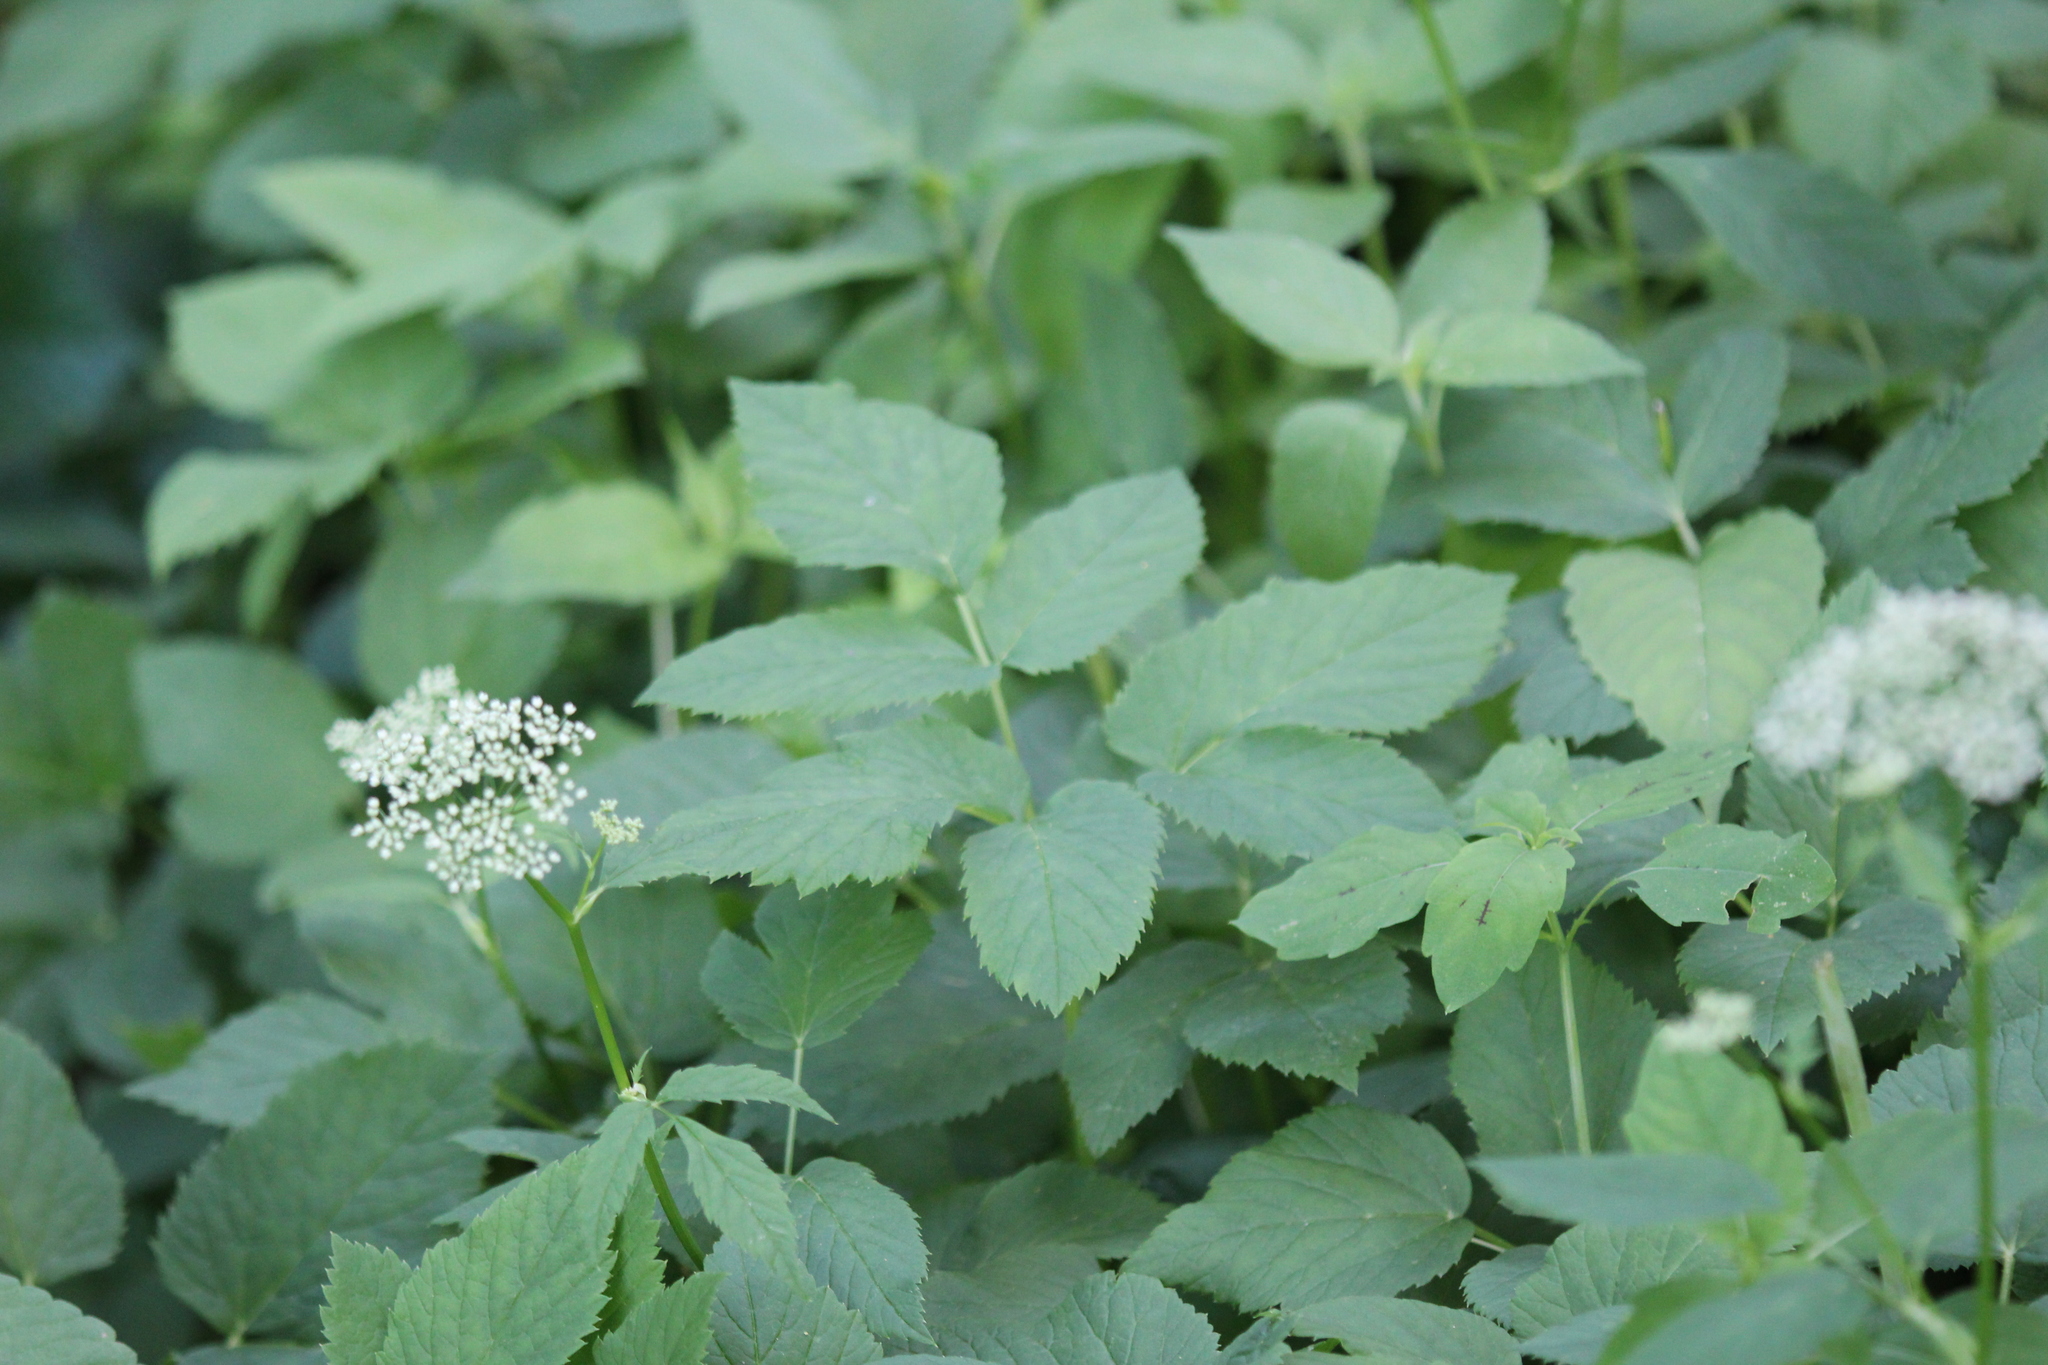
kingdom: Plantae
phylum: Tracheophyta
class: Magnoliopsida
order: Apiales
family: Apiaceae
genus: Aegopodium
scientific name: Aegopodium podagraria
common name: Ground-elder
